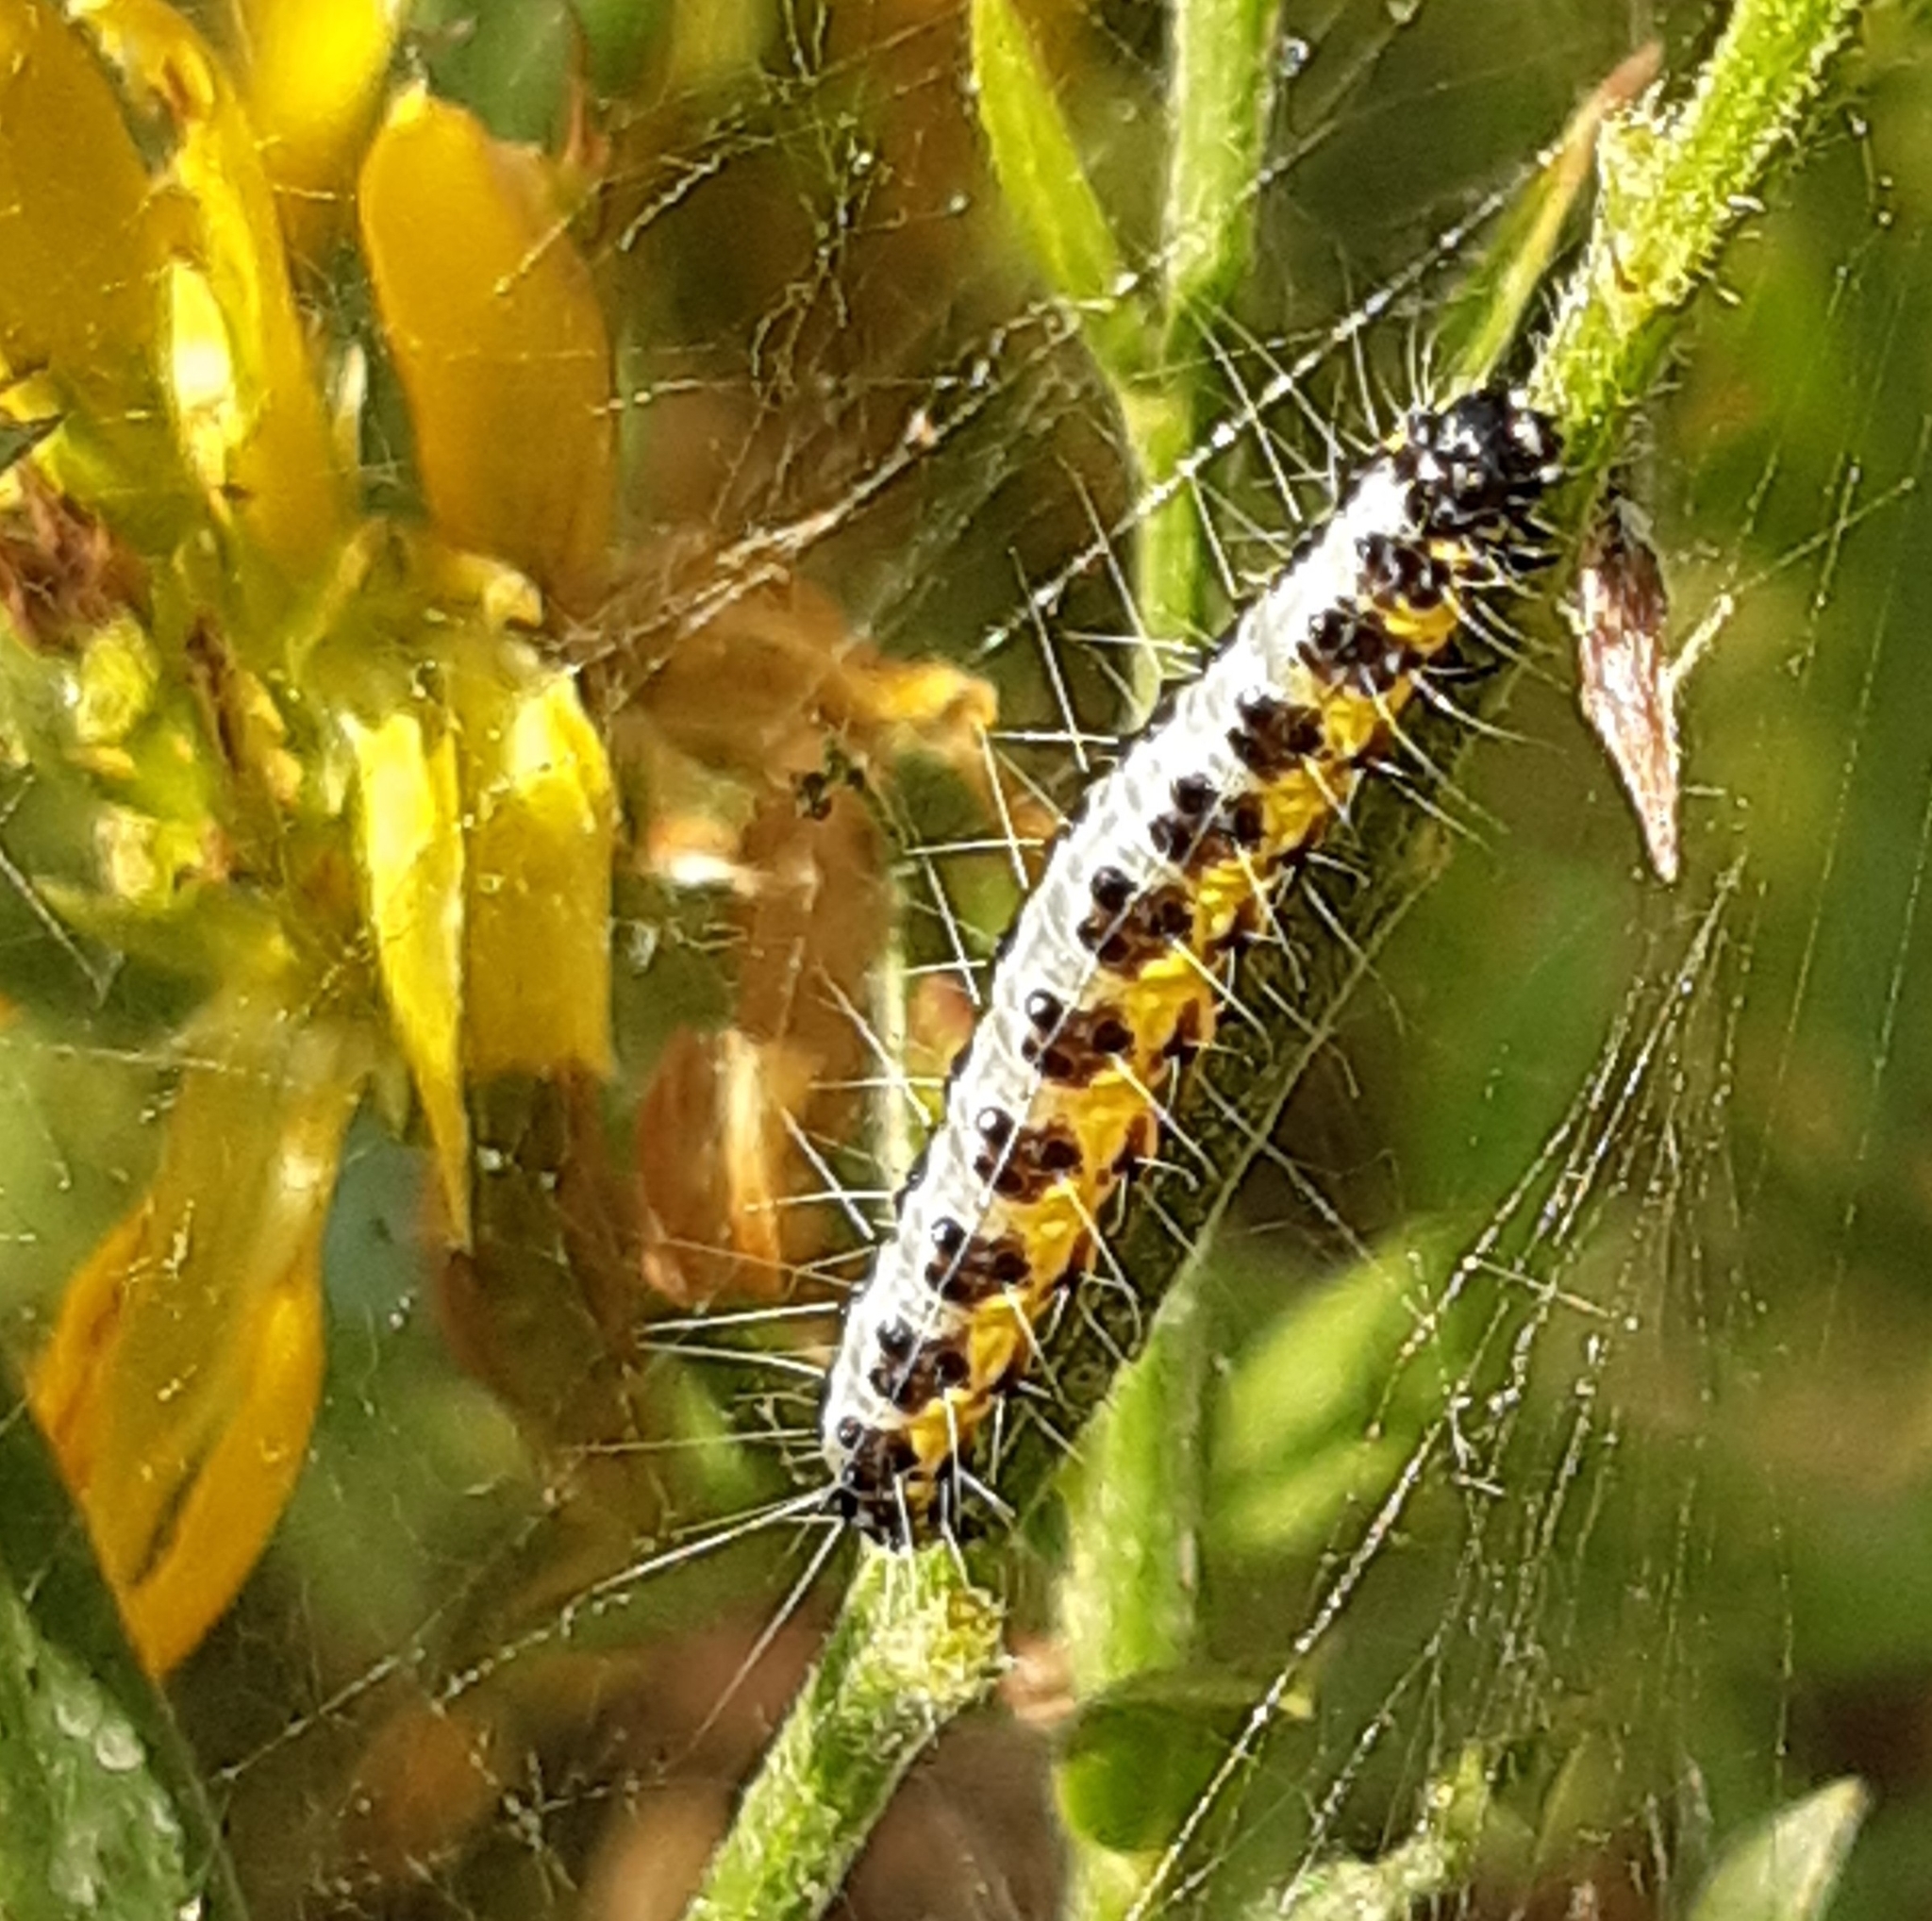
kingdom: Animalia
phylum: Arthropoda
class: Insecta
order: Lepidoptera
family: Crambidae
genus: Uresiphita
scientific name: Uresiphita gilvata
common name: Yellow-underwing pearl
